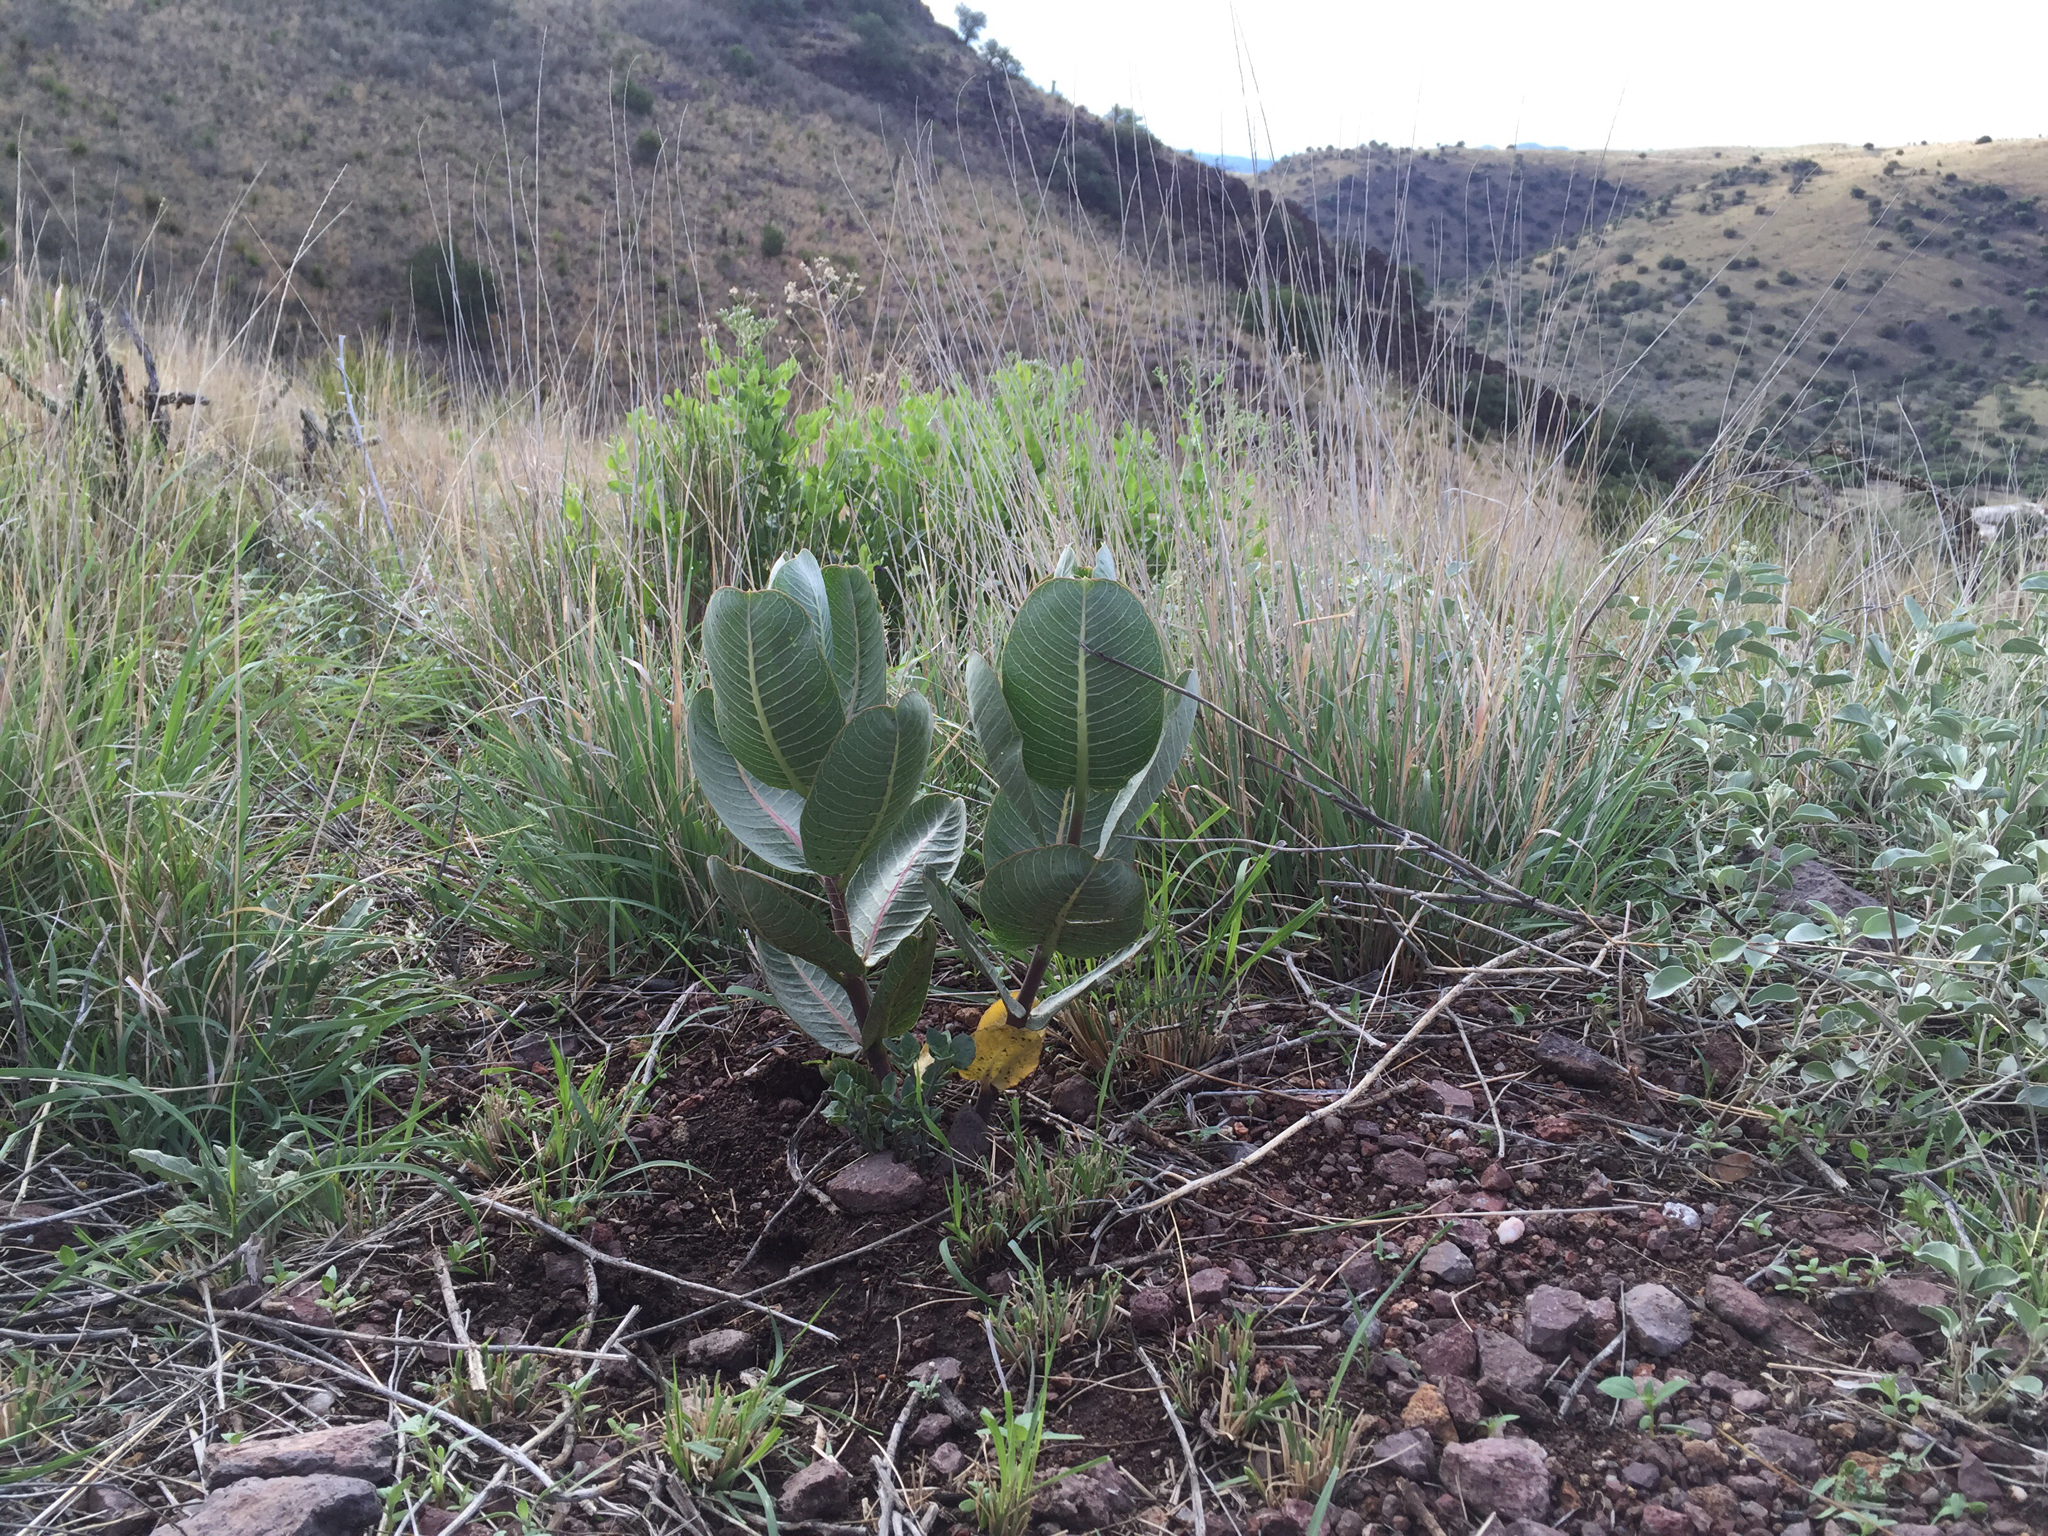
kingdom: Plantae
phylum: Tracheophyta
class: Magnoliopsida
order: Gentianales
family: Apocynaceae
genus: Asclepias
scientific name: Asclepias latifolia
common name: Broadleaf milkweed
